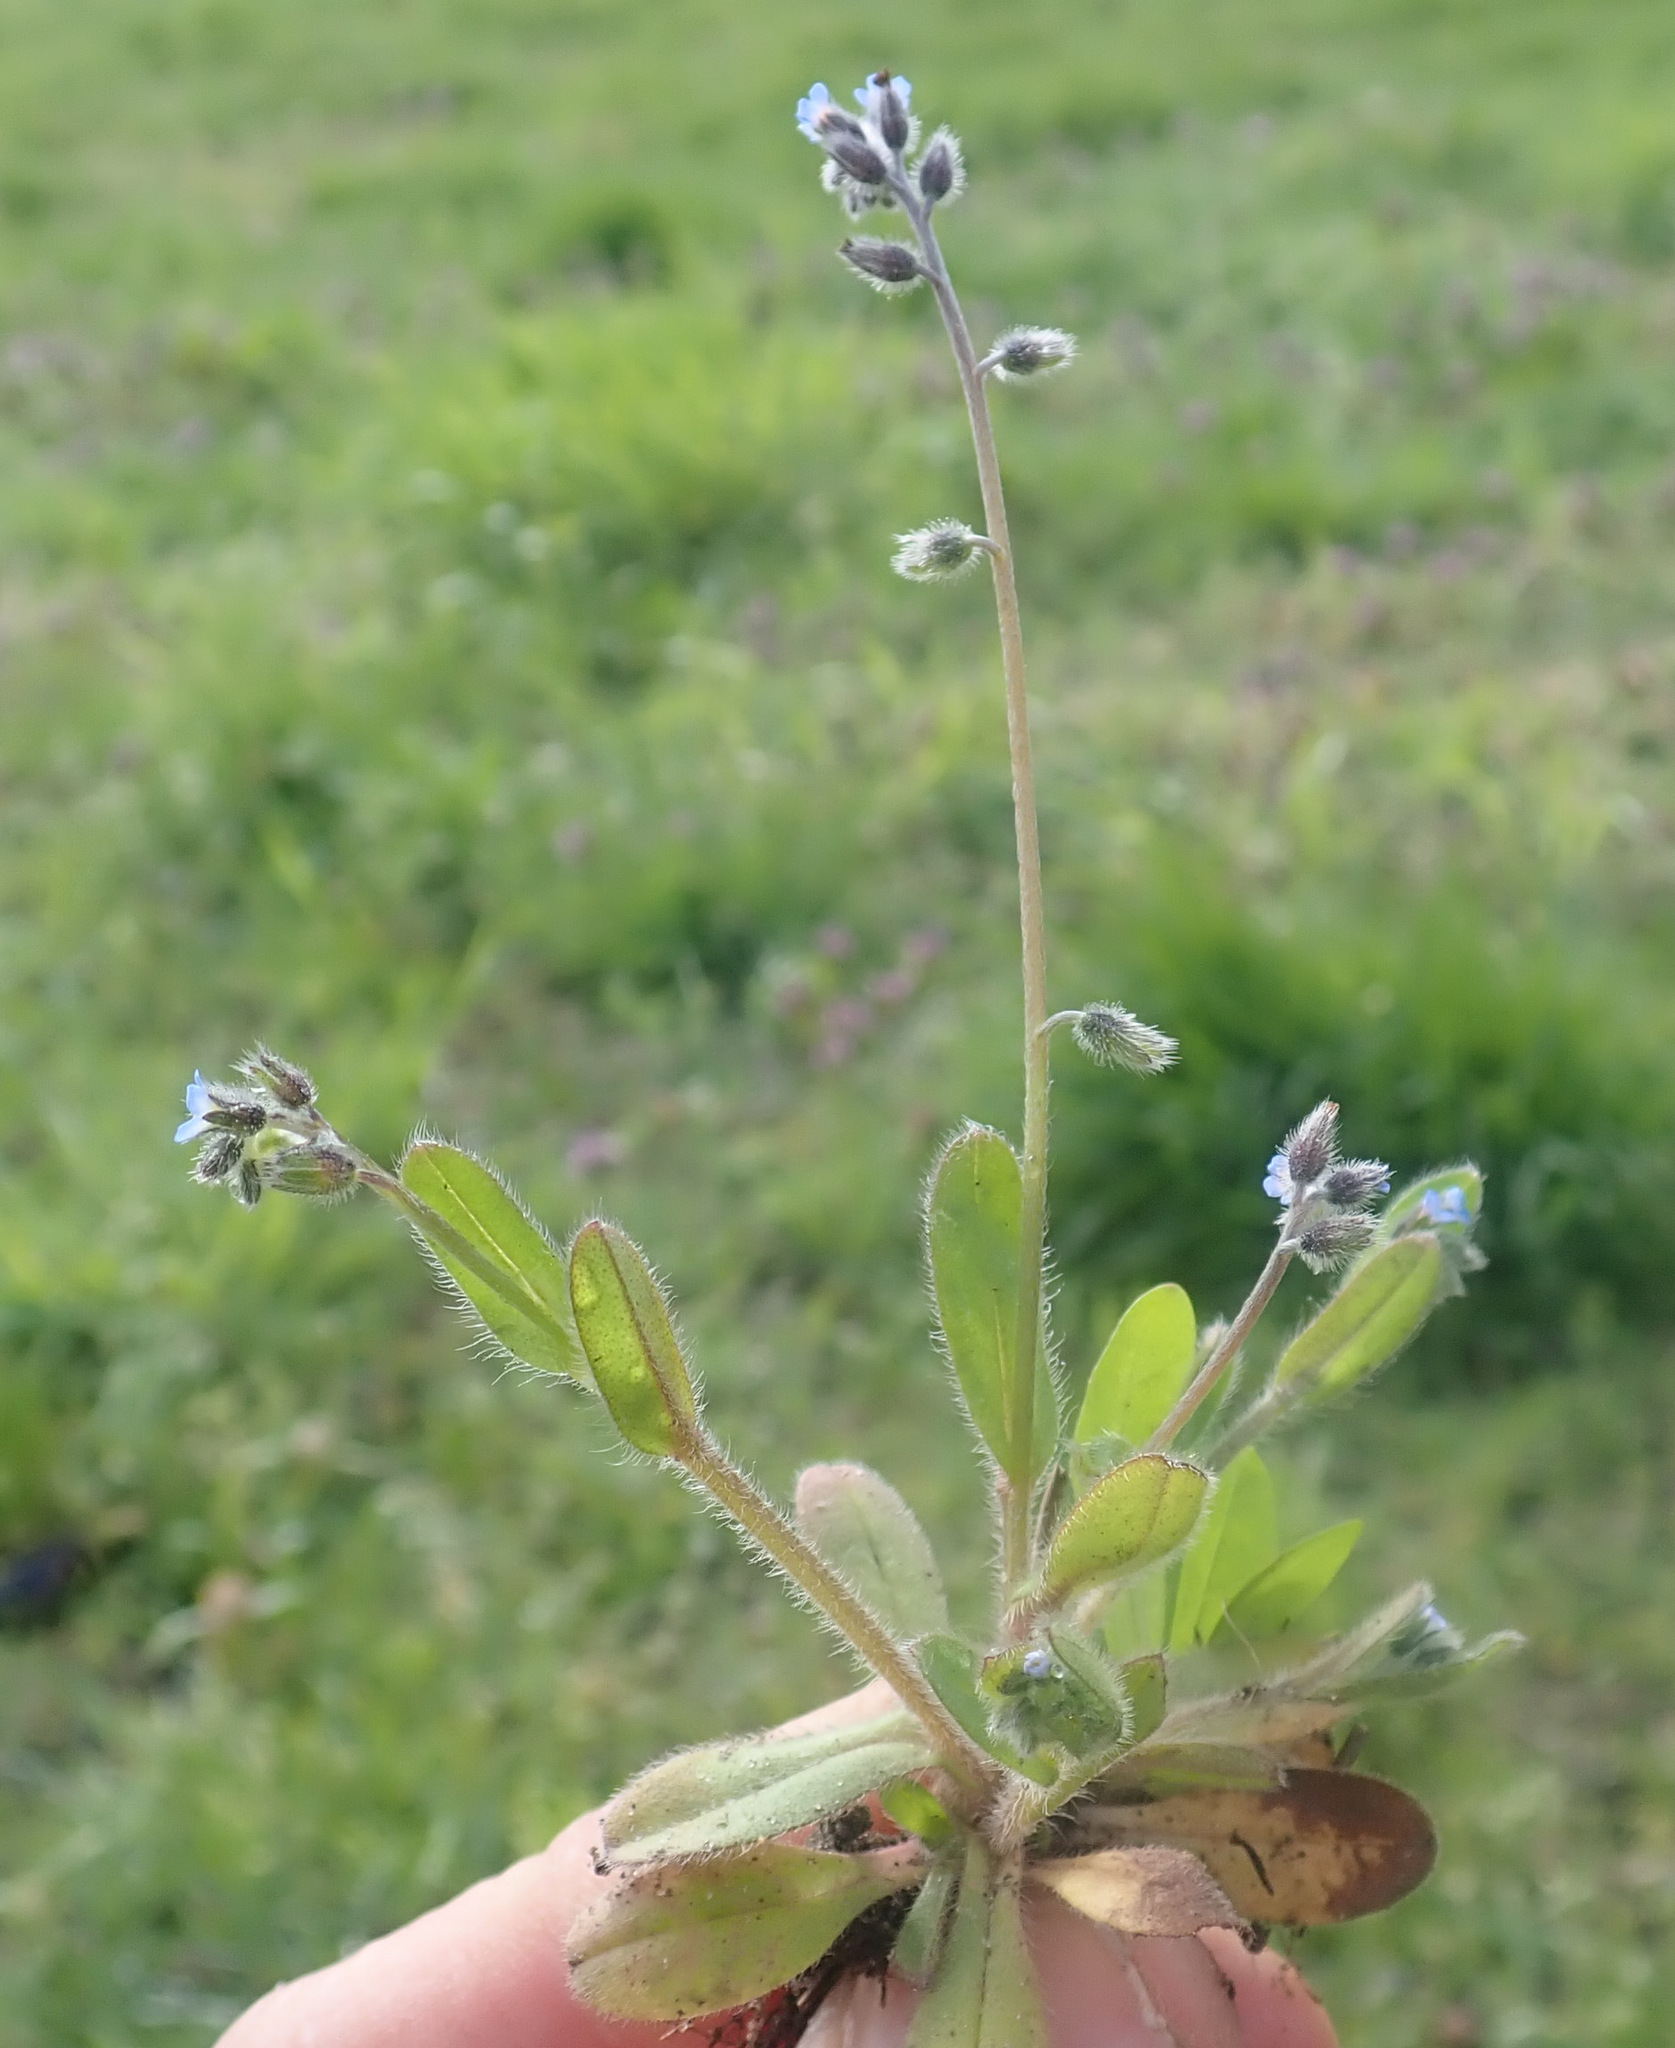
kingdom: Plantae
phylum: Tracheophyta
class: Magnoliopsida
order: Boraginales
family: Boraginaceae
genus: Myosotis
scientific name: Myosotis ramosissima
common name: Early forget-me-not
